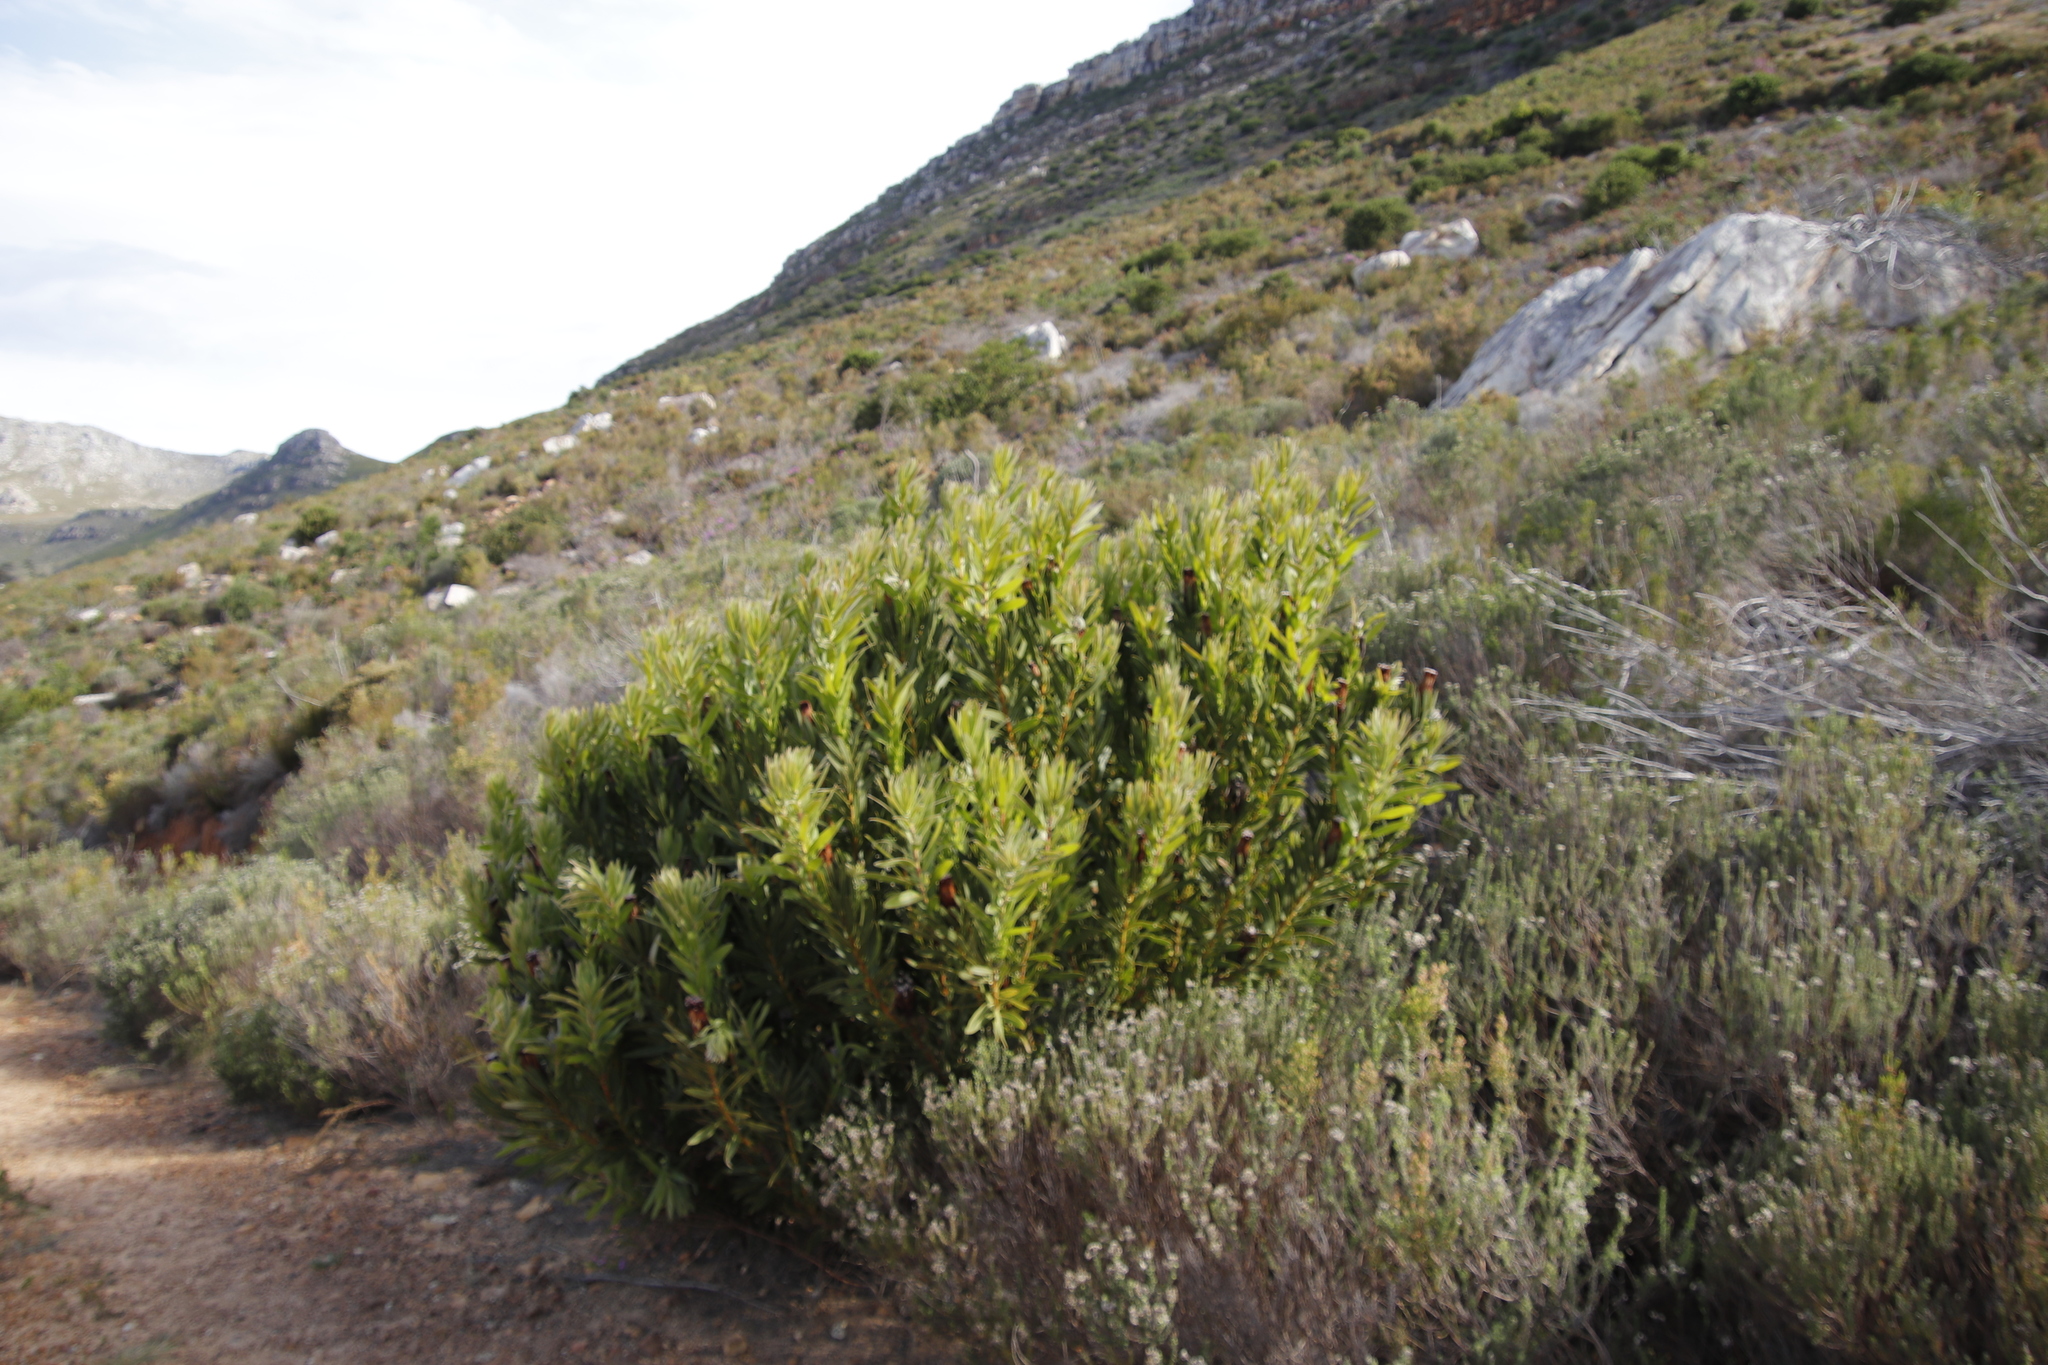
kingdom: Plantae
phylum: Tracheophyta
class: Magnoliopsida
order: Proteales
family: Proteaceae
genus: Protea
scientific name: Protea lepidocarpodendron
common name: Black-bearded protea
